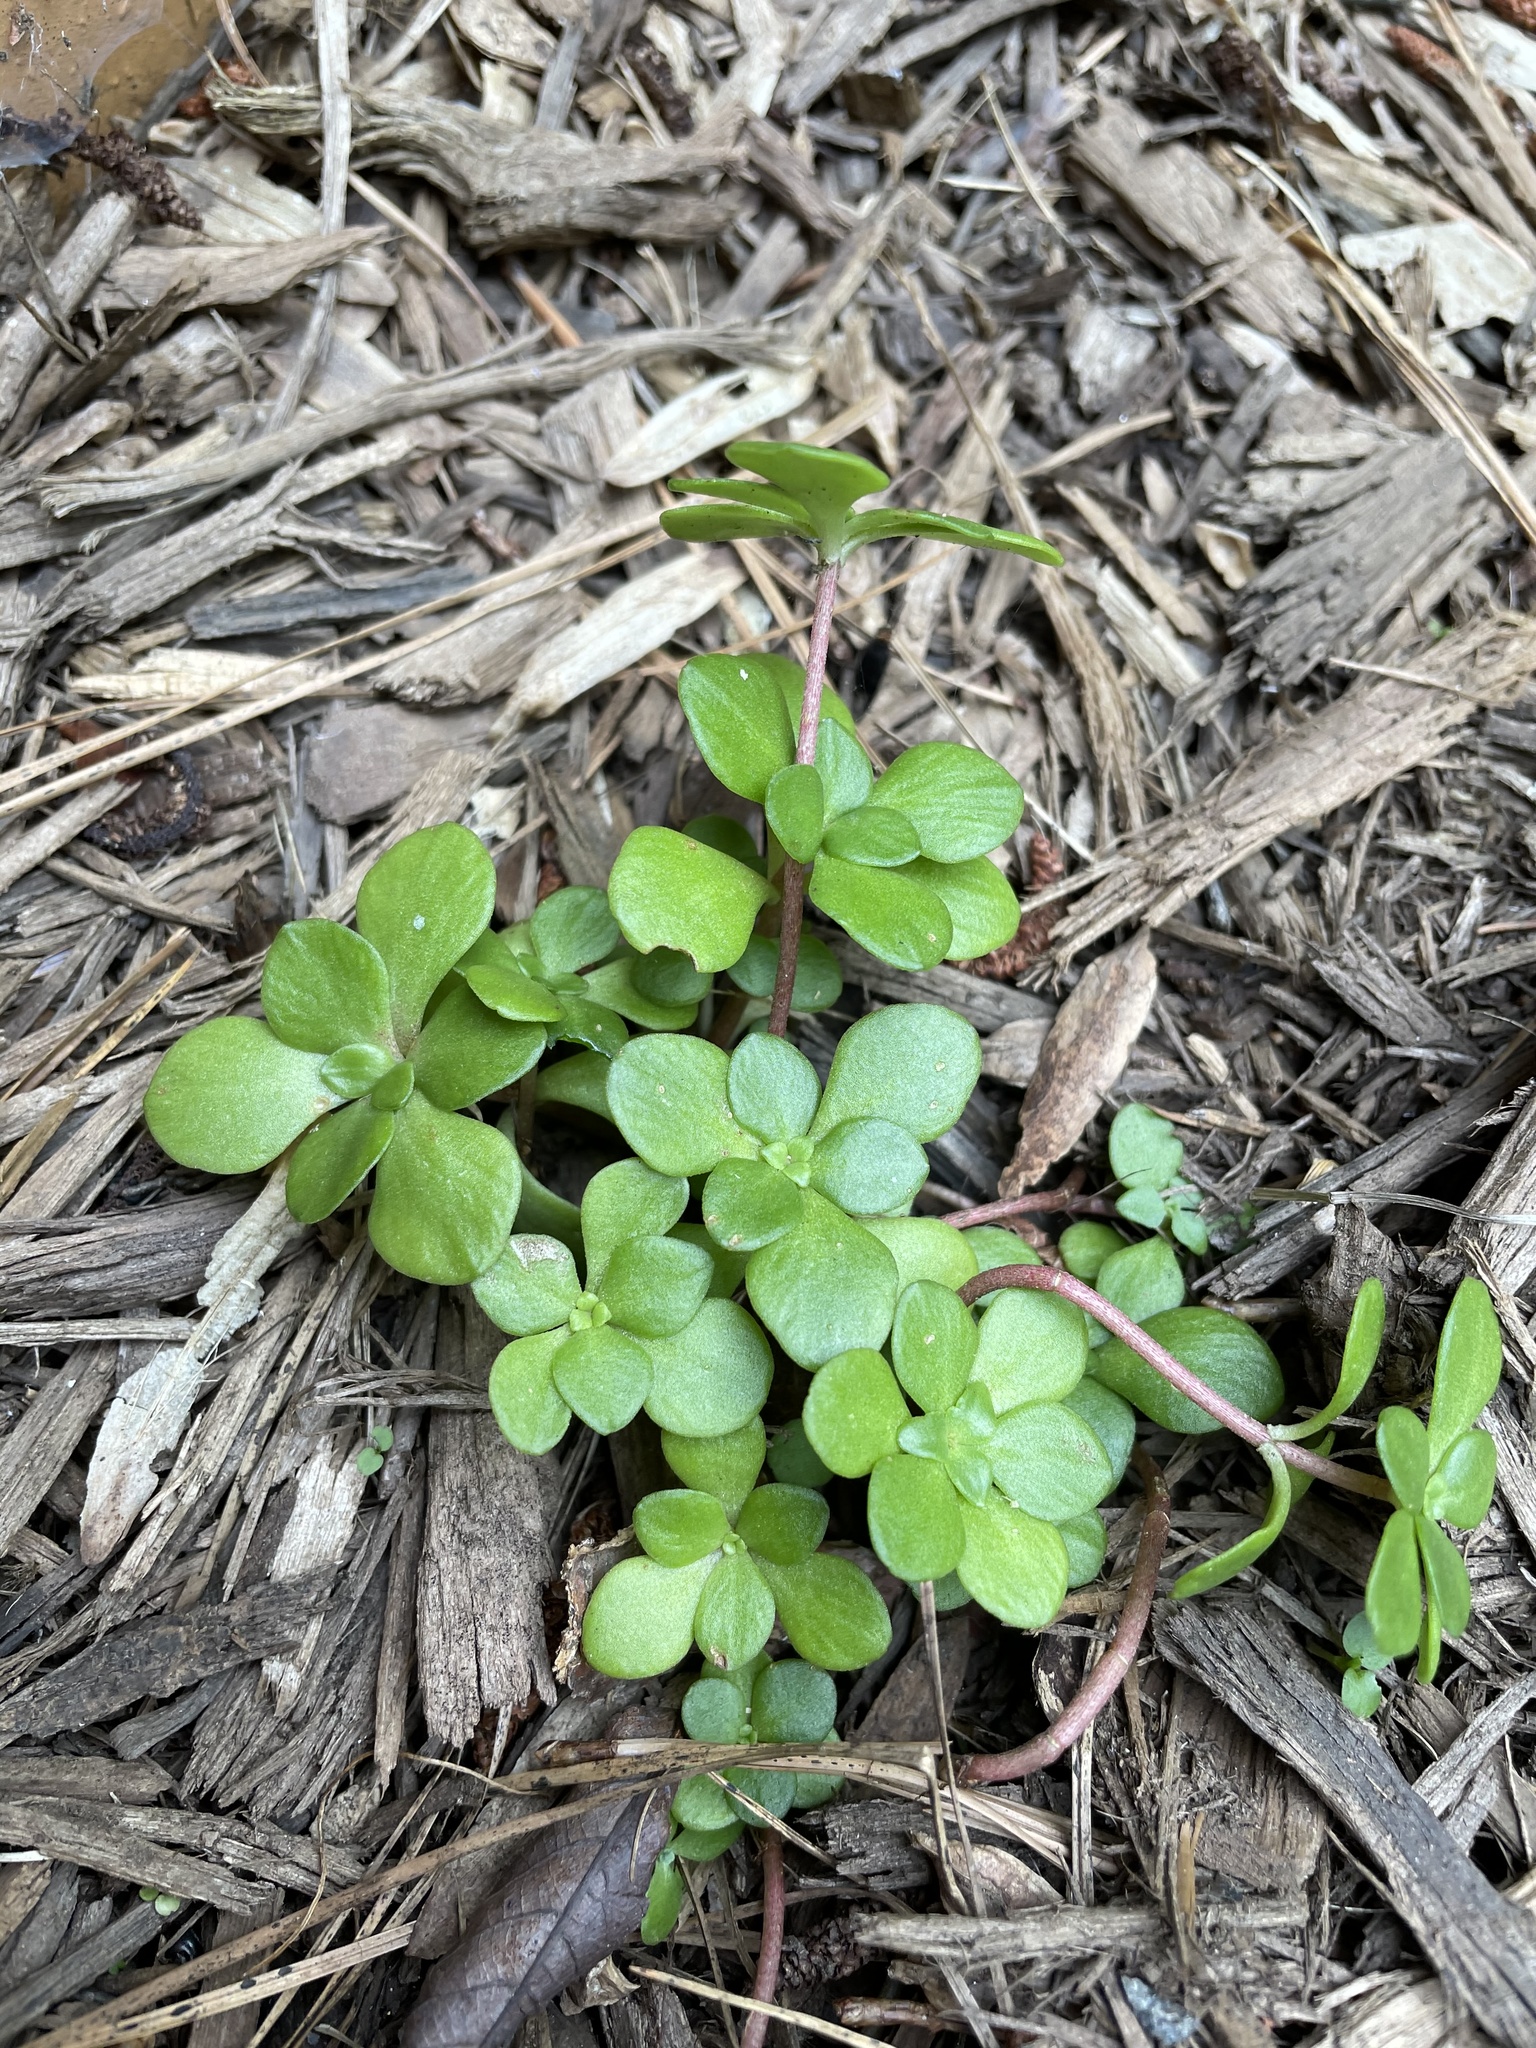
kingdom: Plantae
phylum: Tracheophyta
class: Magnoliopsida
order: Saxifragales
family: Crassulaceae
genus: Sedum
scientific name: Sedum ternatum
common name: Wild stonecrop
